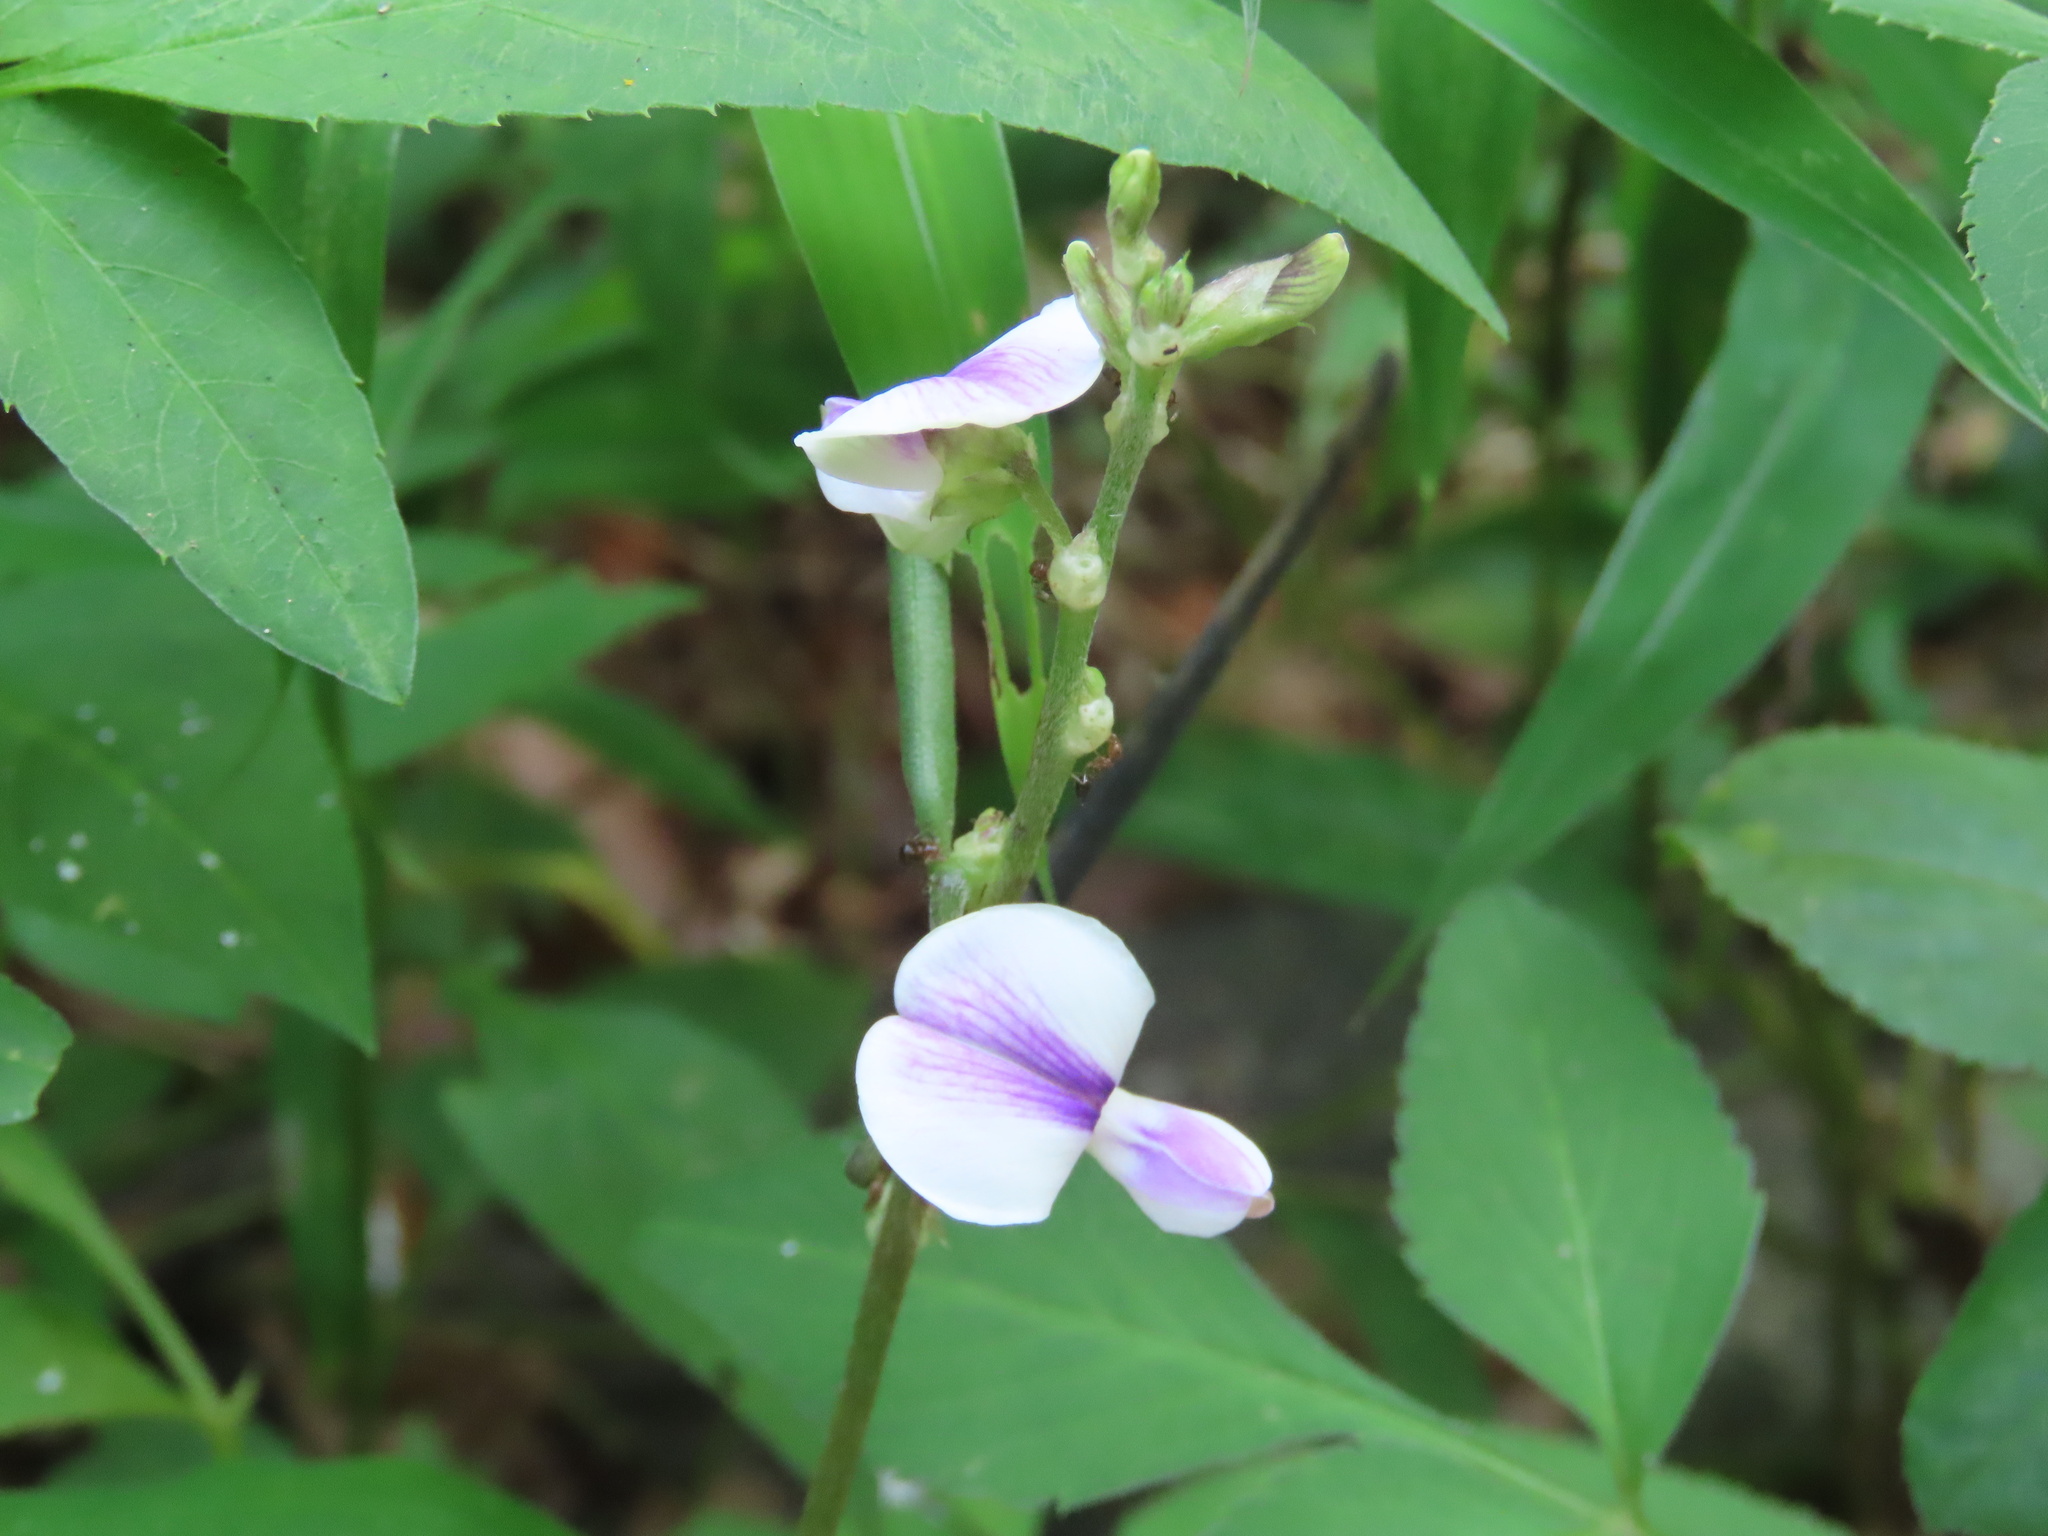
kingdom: Plantae
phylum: Tracheophyta
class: Magnoliopsida
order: Fabales
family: Fabaceae
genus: Neustanthus
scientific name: Neustanthus phaseoloides
